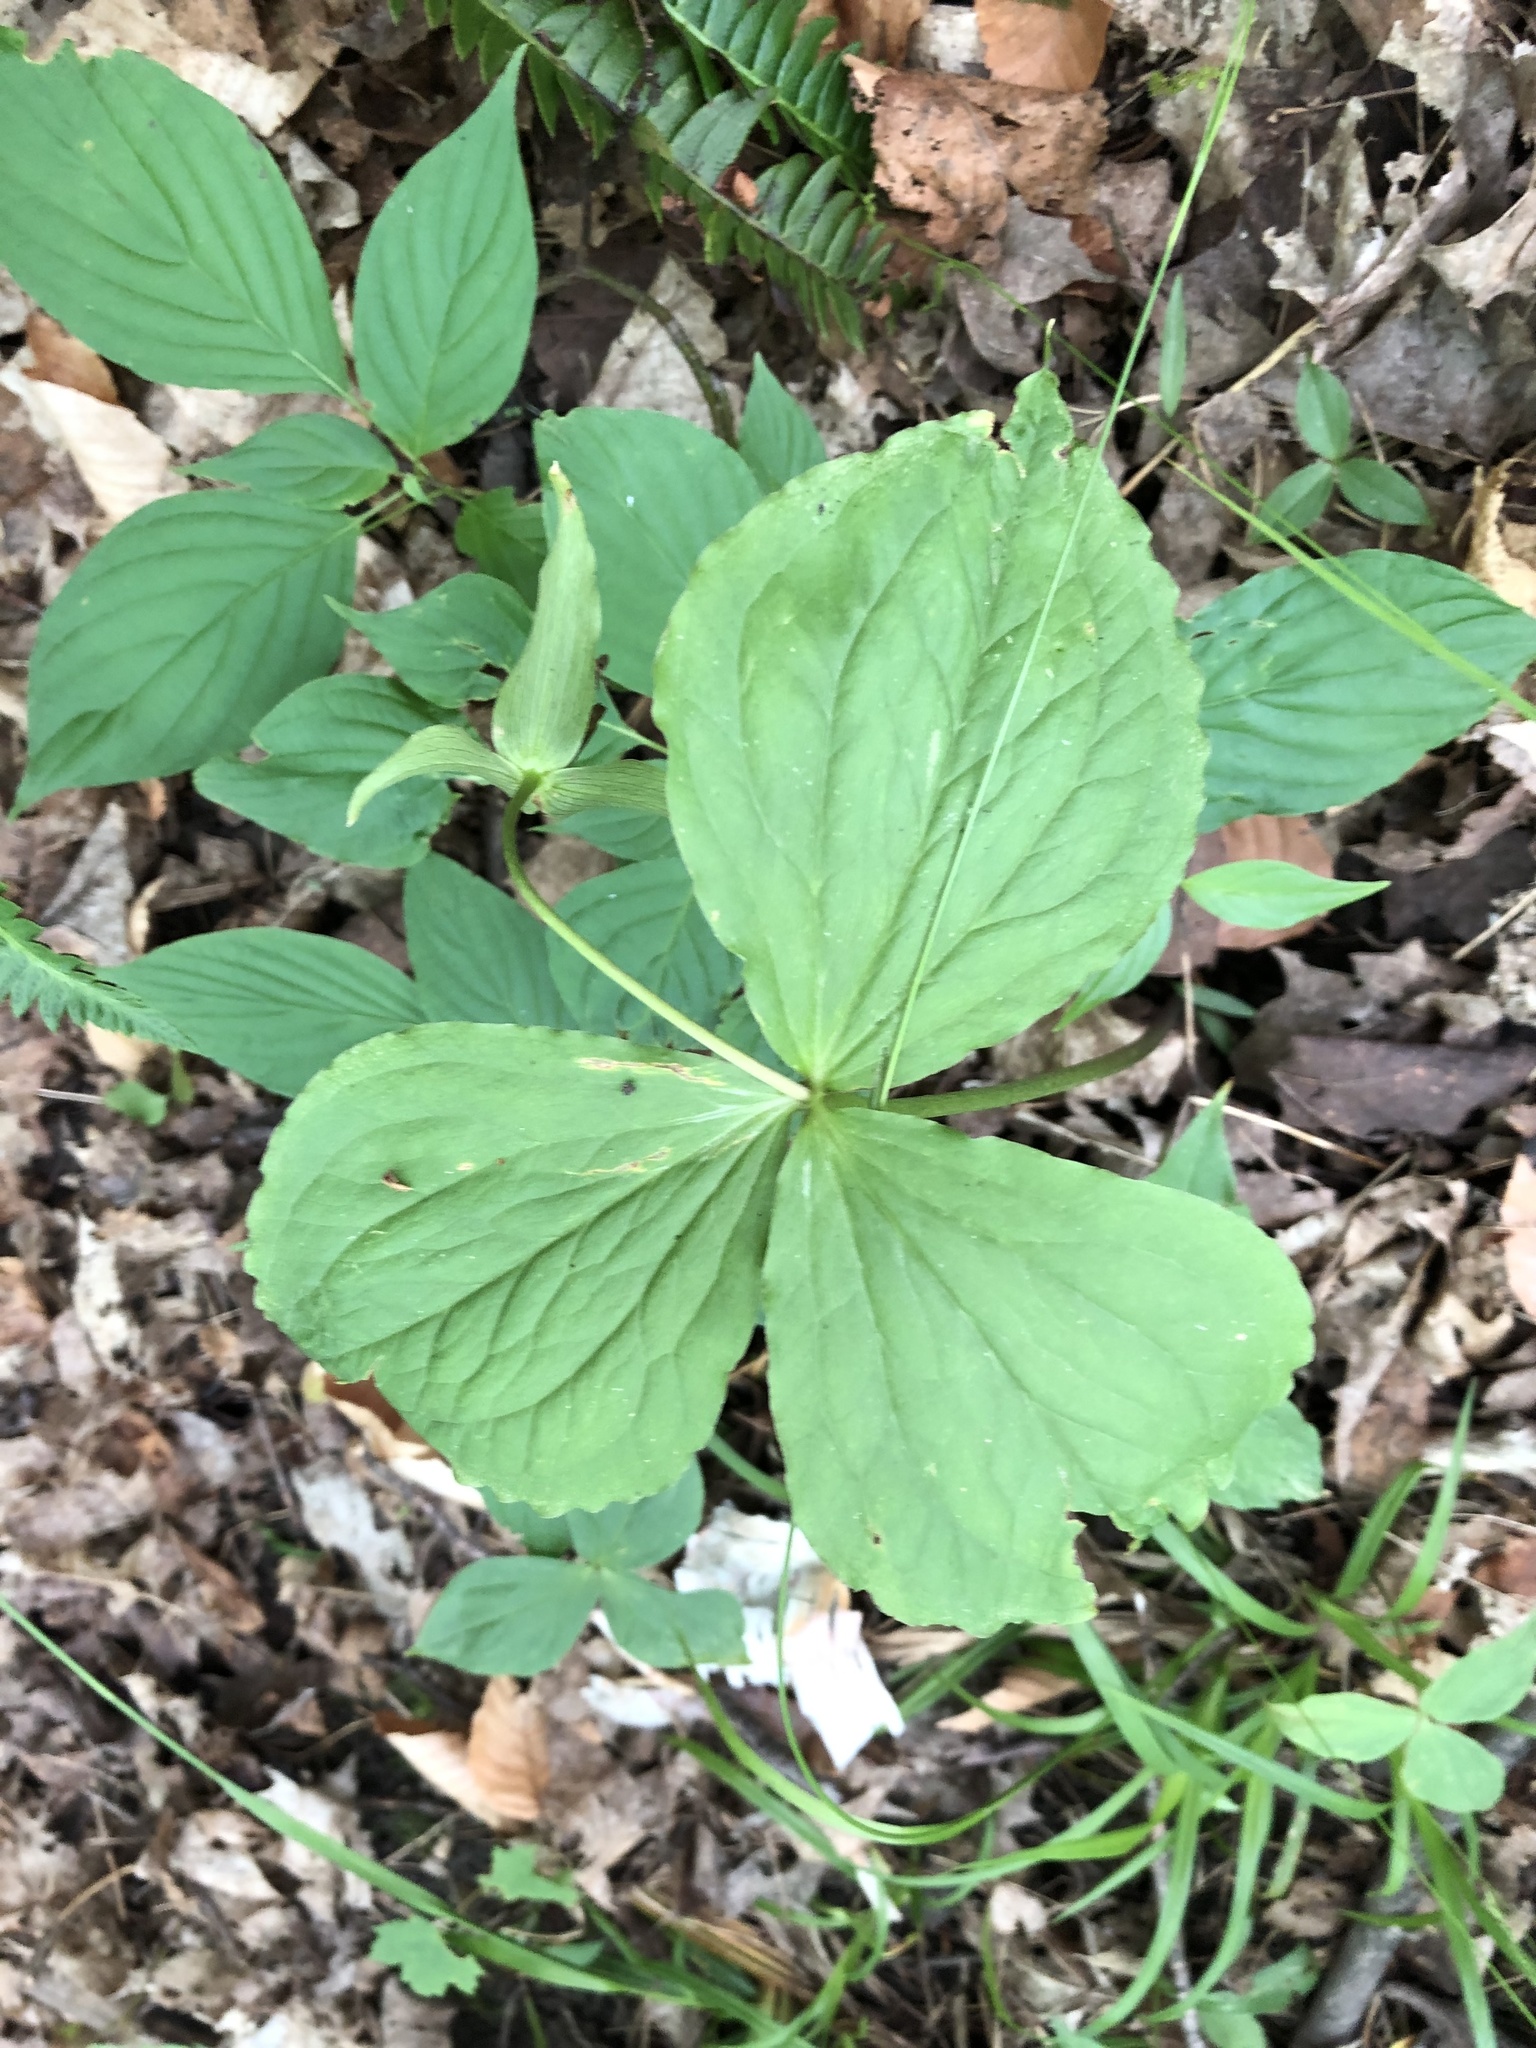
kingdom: Plantae
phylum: Tracheophyta
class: Liliopsida
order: Liliales
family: Melanthiaceae
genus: Trillium
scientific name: Trillium grandiflorum
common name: Great white trillium
